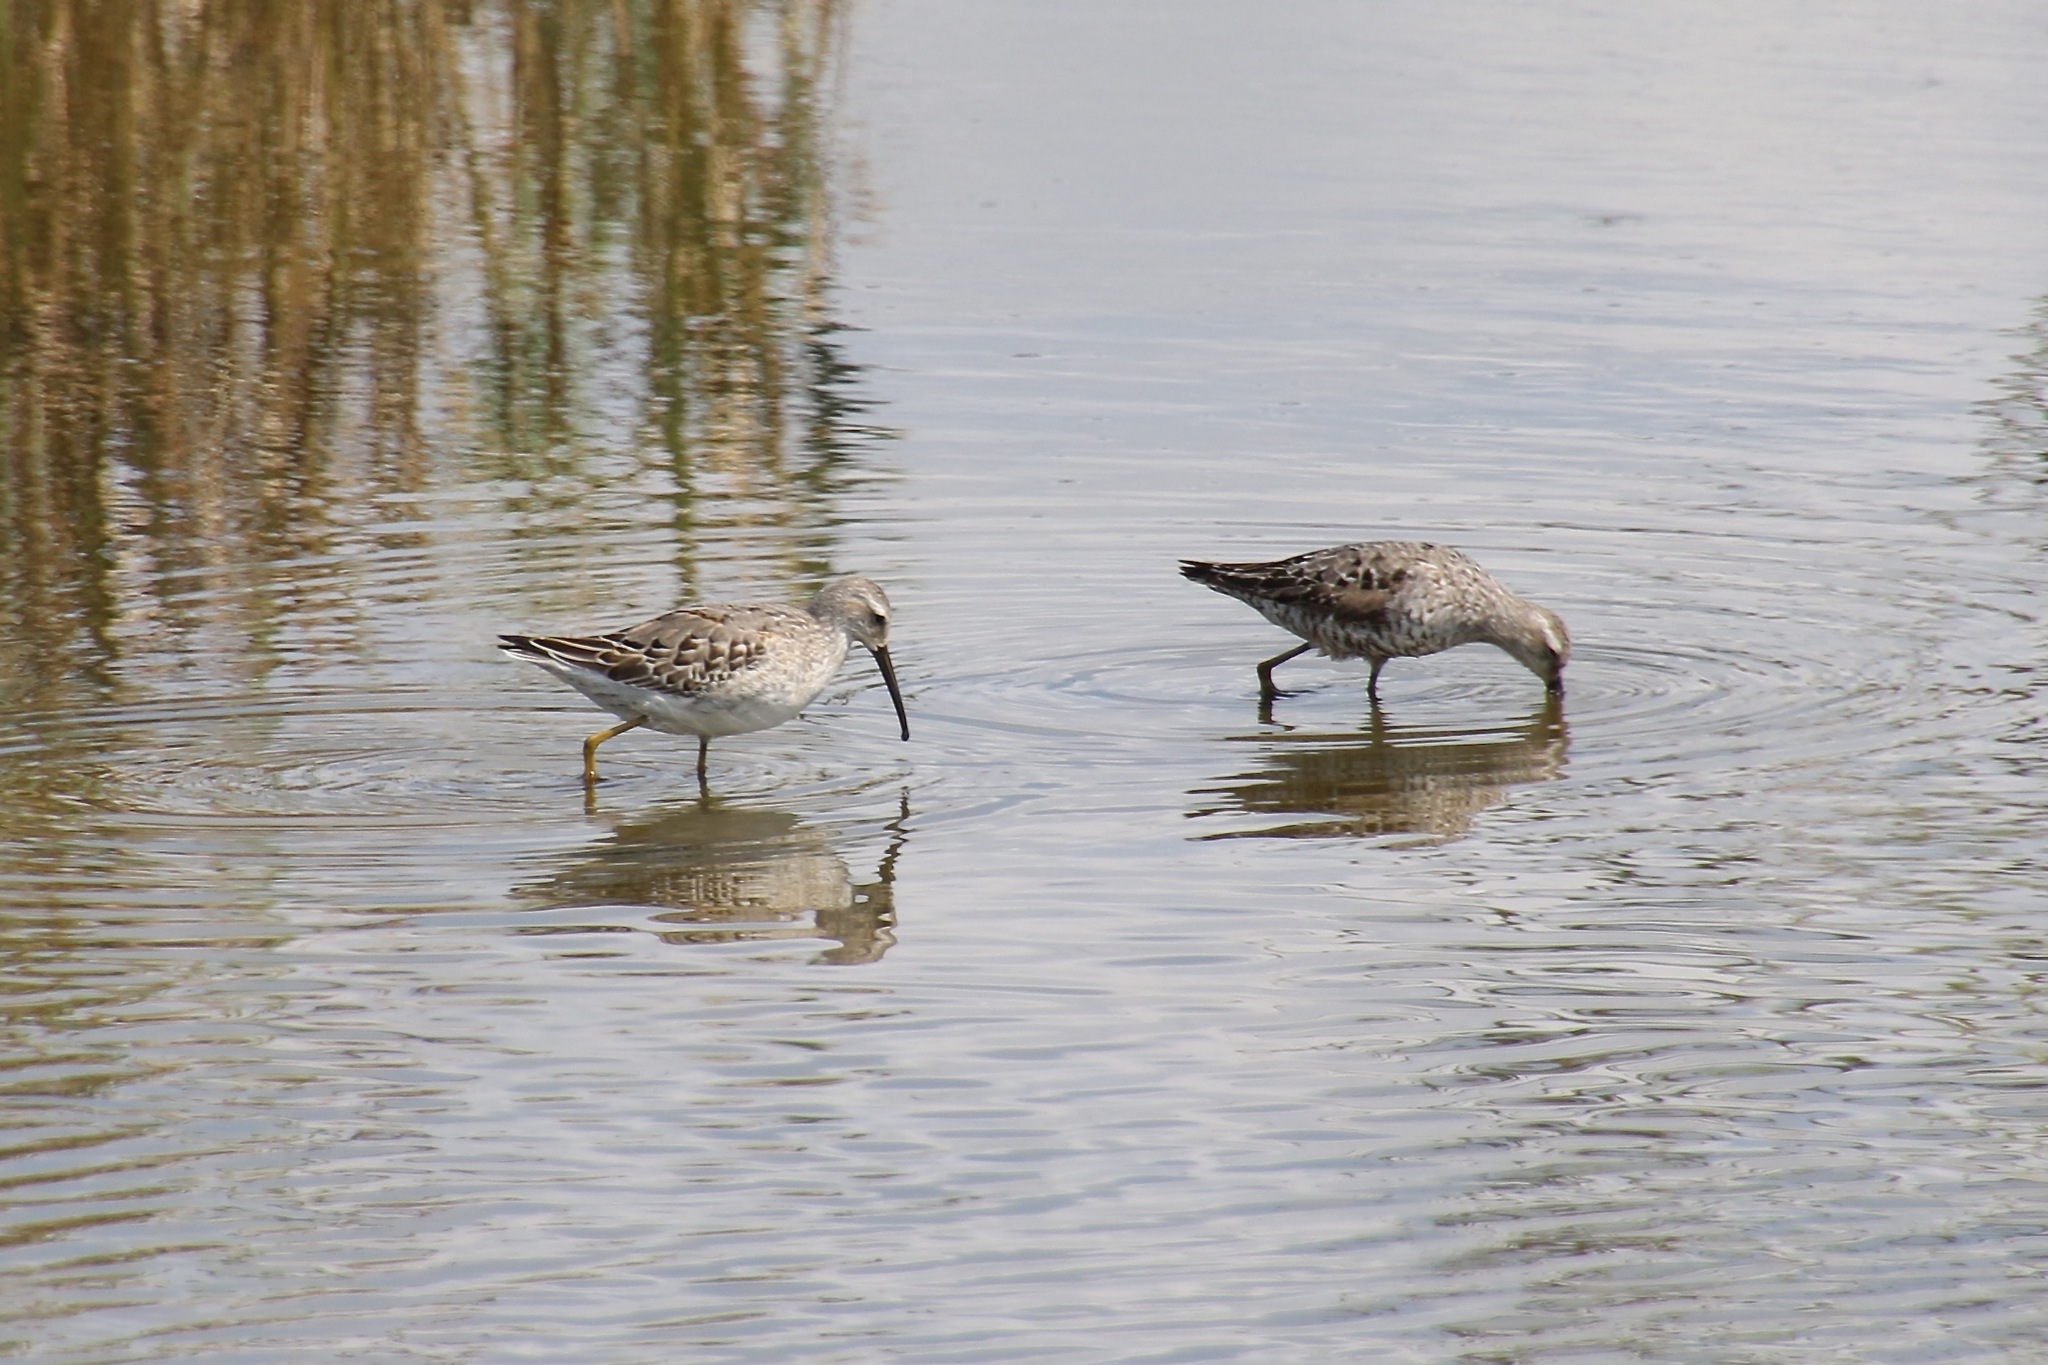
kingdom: Animalia
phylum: Chordata
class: Aves
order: Charadriiformes
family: Scolopacidae
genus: Calidris
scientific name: Calidris himantopus
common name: Stilt sandpiper
